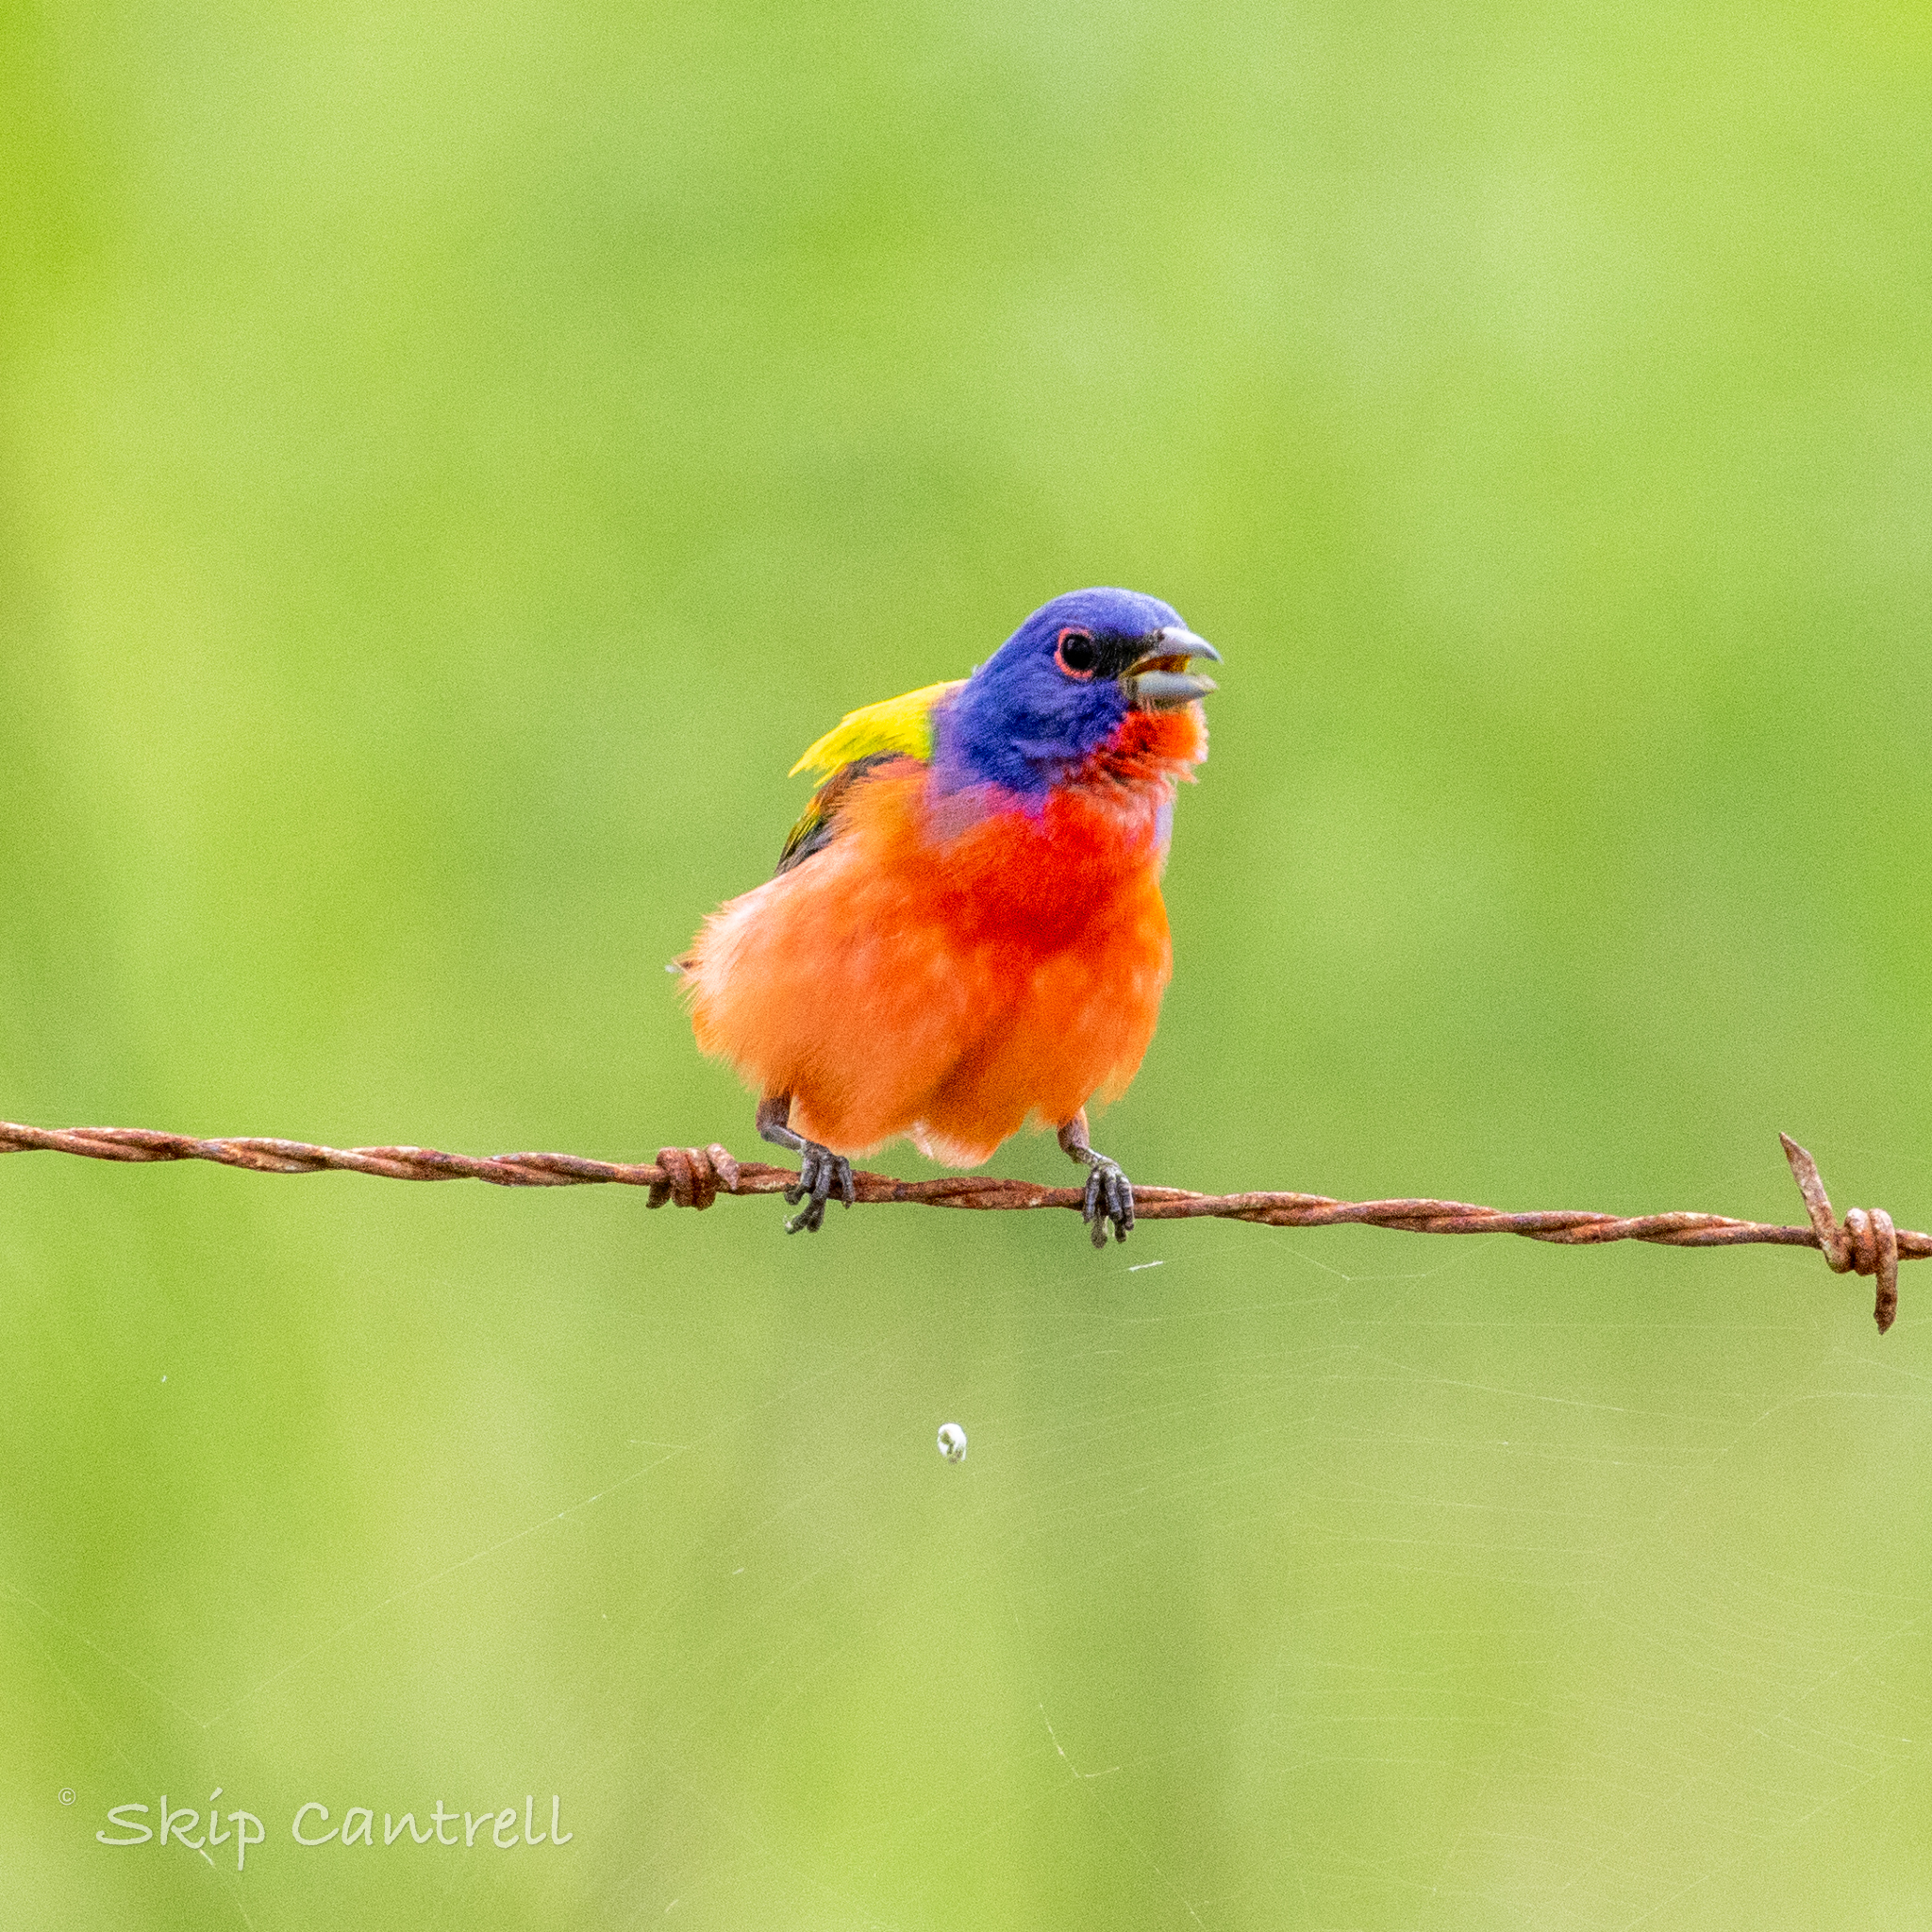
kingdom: Animalia
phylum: Chordata
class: Aves
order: Passeriformes
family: Cardinalidae
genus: Passerina
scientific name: Passerina ciris
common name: Painted bunting
